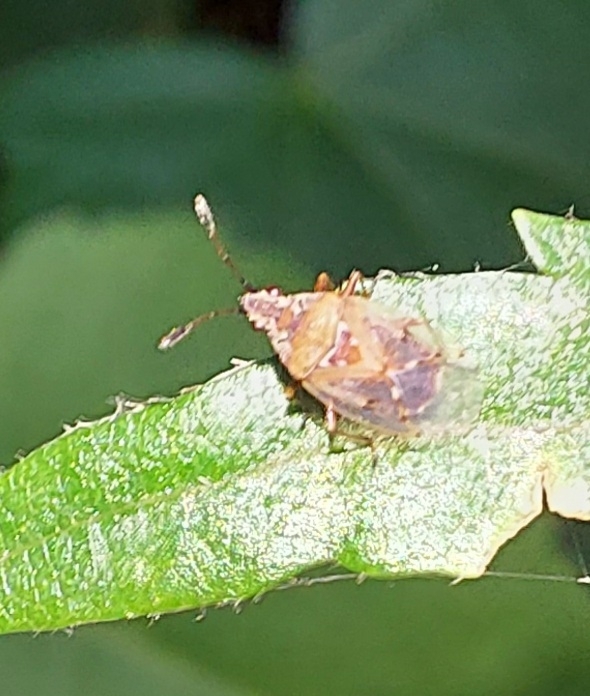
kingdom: Animalia
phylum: Arthropoda
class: Insecta
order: Hemiptera
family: Lygaeidae
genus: Kleidocerys
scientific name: Kleidocerys resedae
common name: Birch catkin bug
